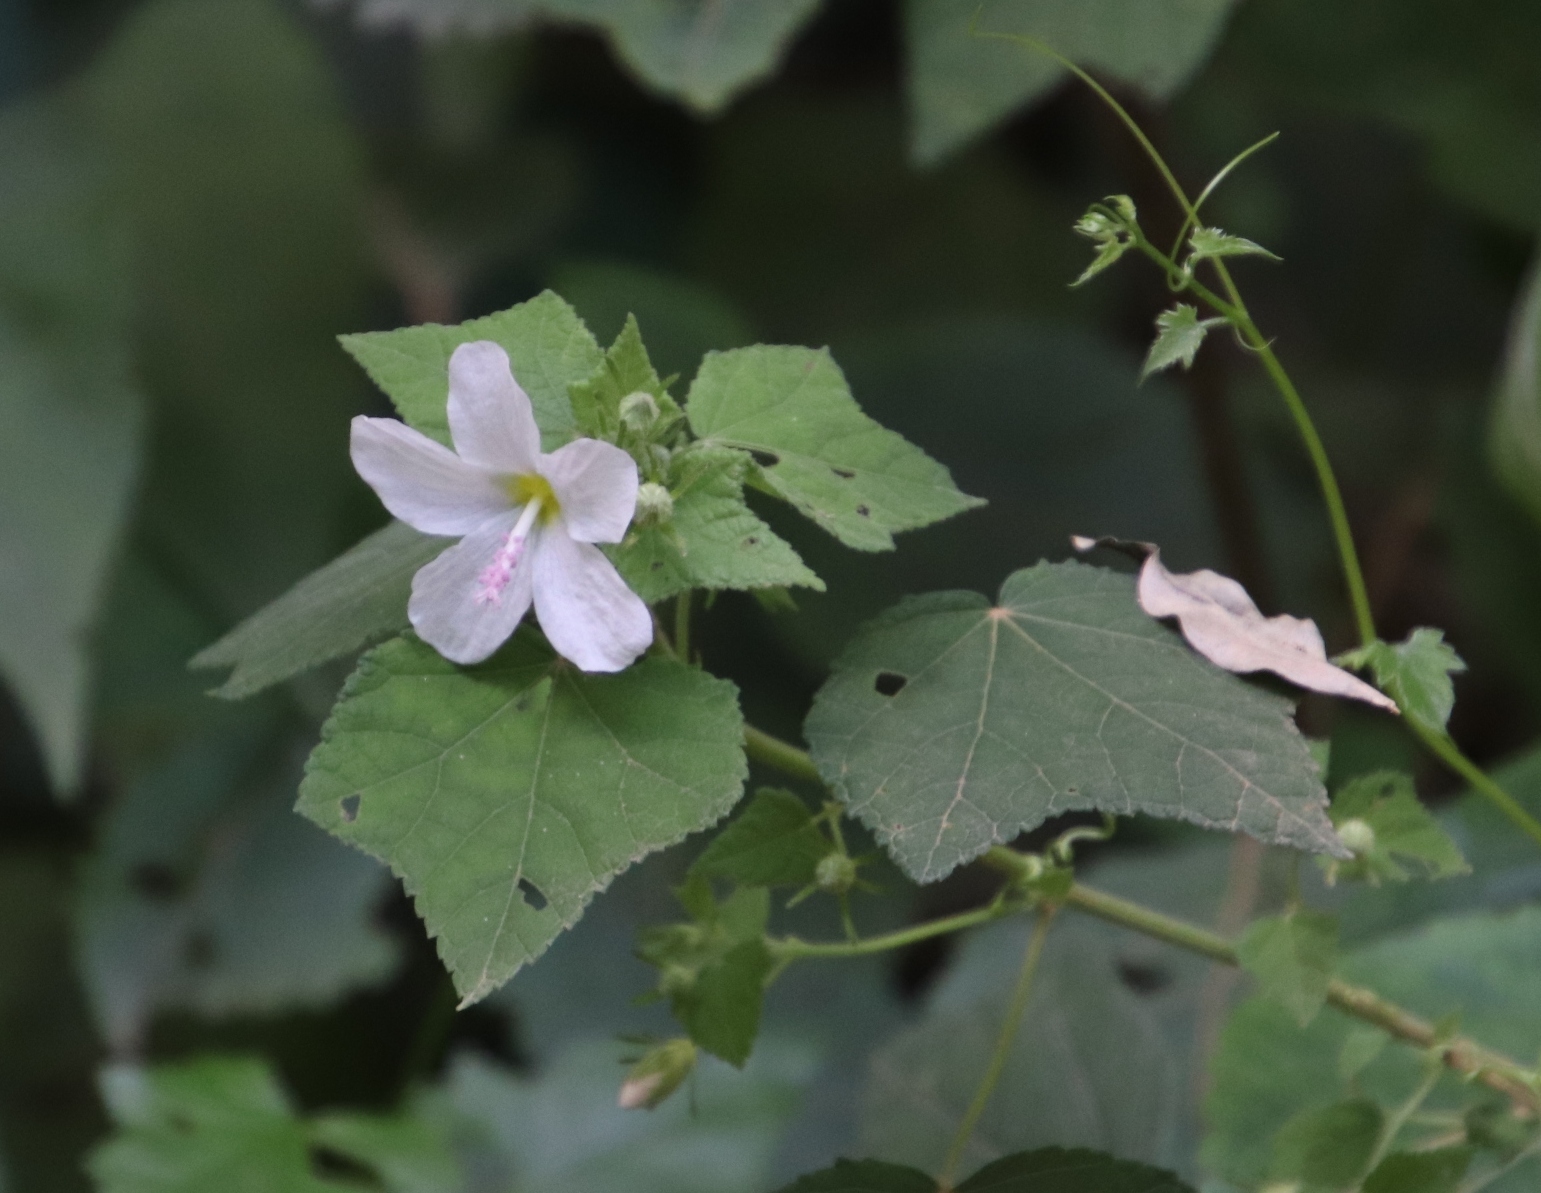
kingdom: Plantae
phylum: Tracheophyta
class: Magnoliopsida
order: Malvales
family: Malvaceae
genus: Pavonia
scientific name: Pavonia columella
